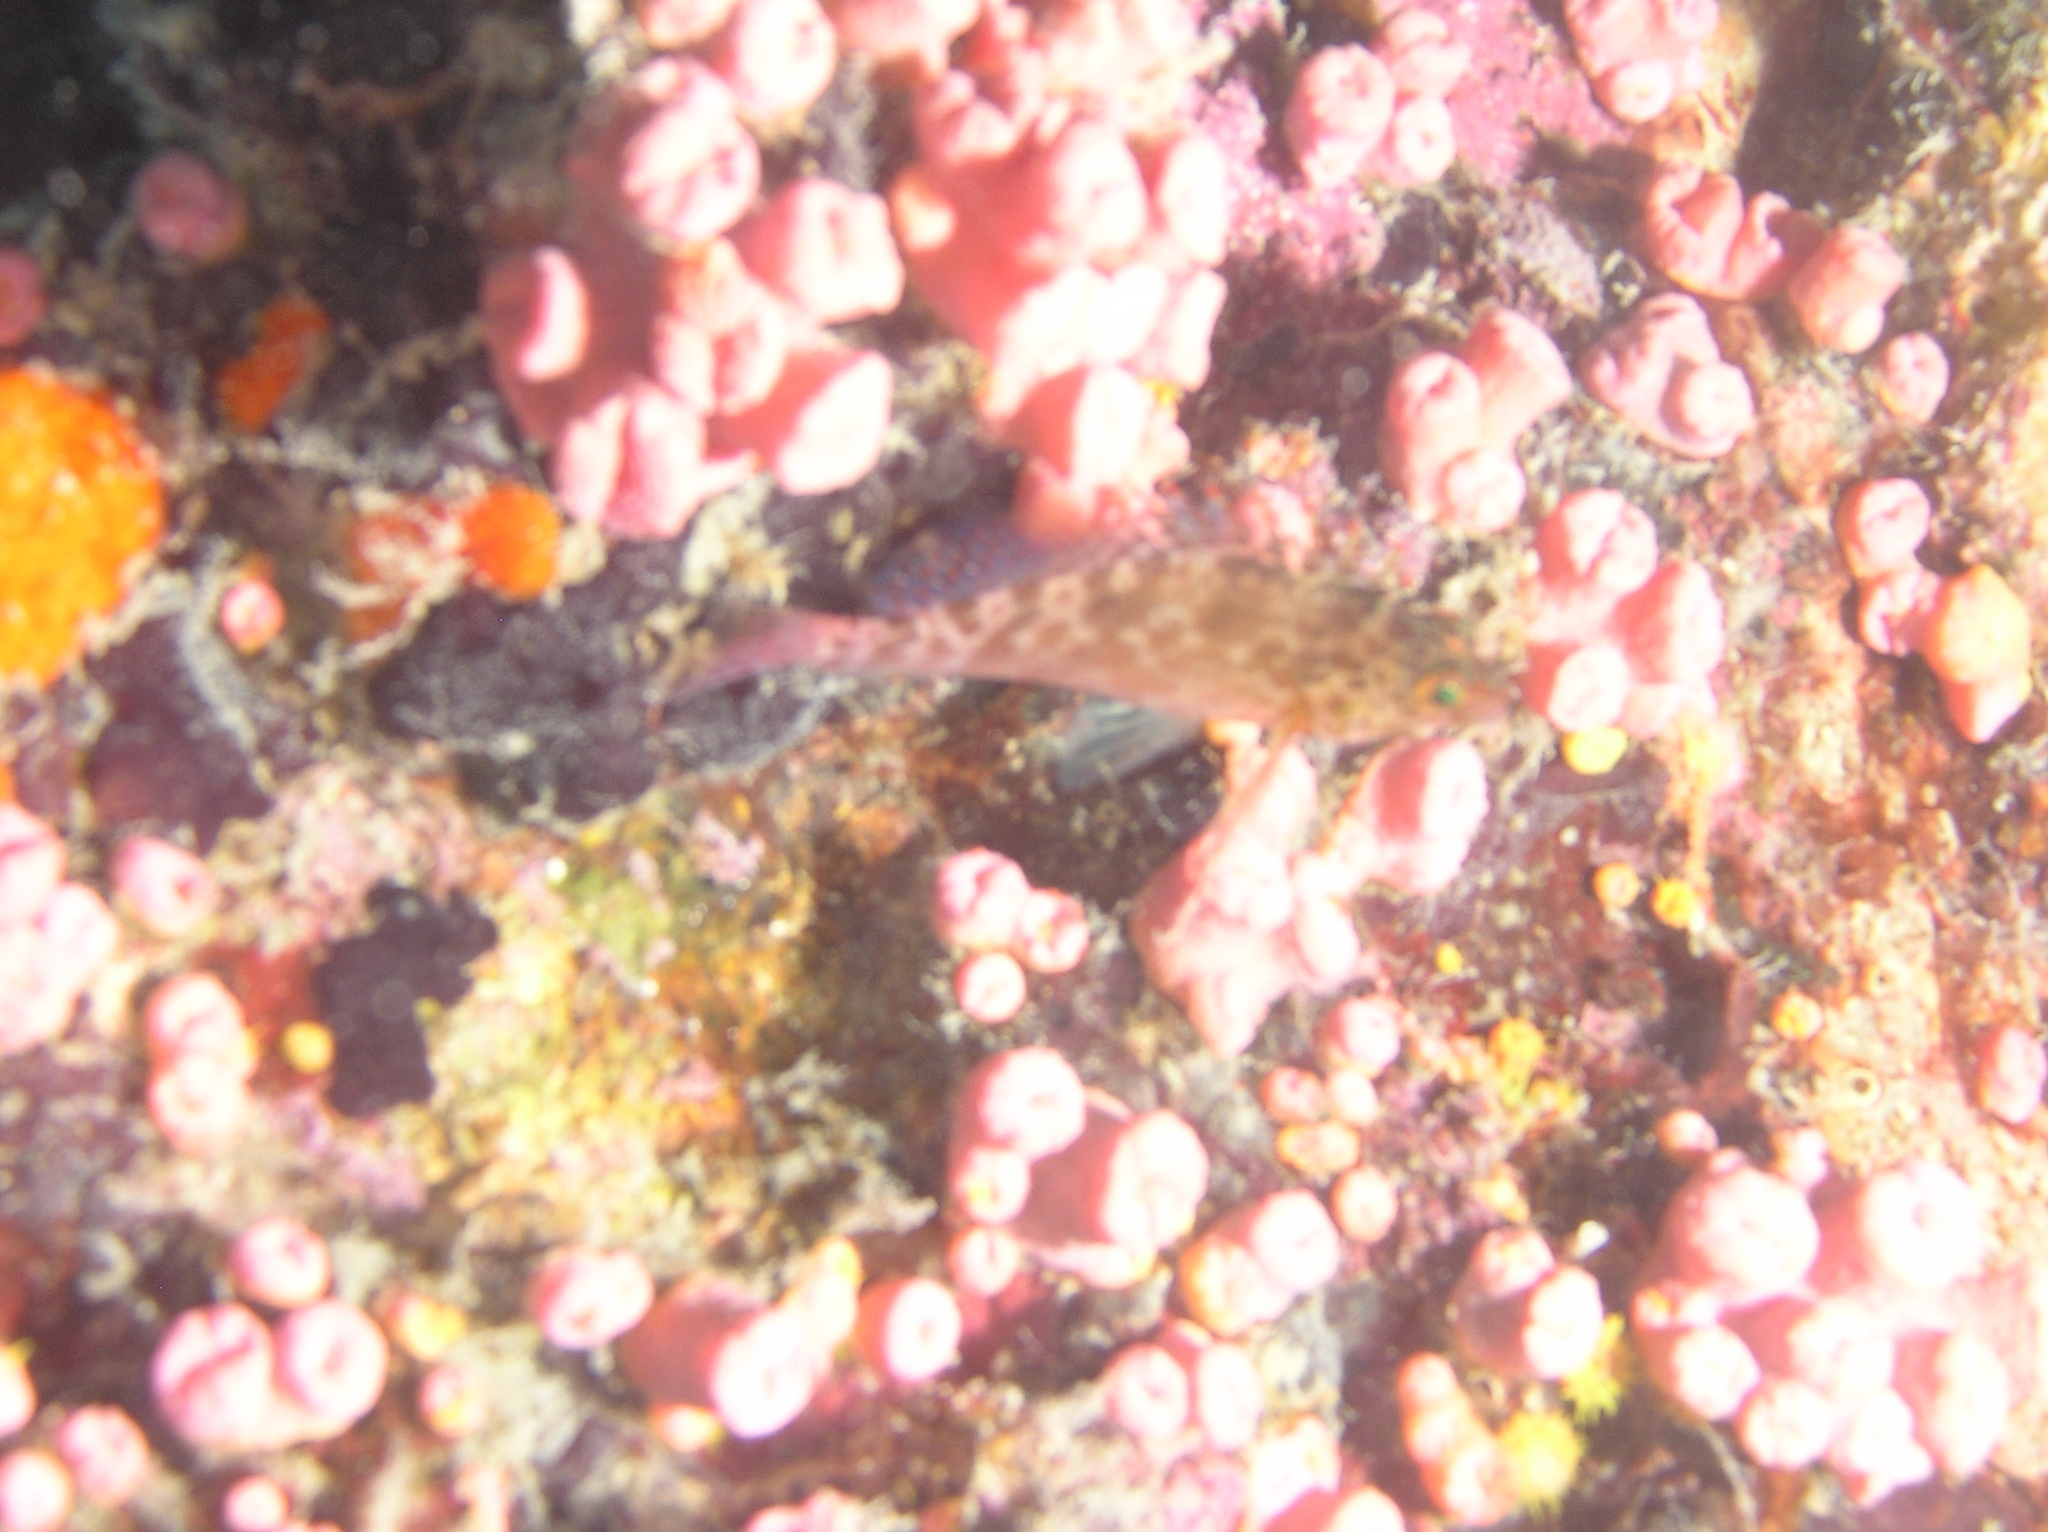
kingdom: Animalia
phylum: Chordata
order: Perciformes
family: Cirrhitidae
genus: Cirrhitichthys
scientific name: Cirrhitichthys oxycephalus
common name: Spotted hawkfish
